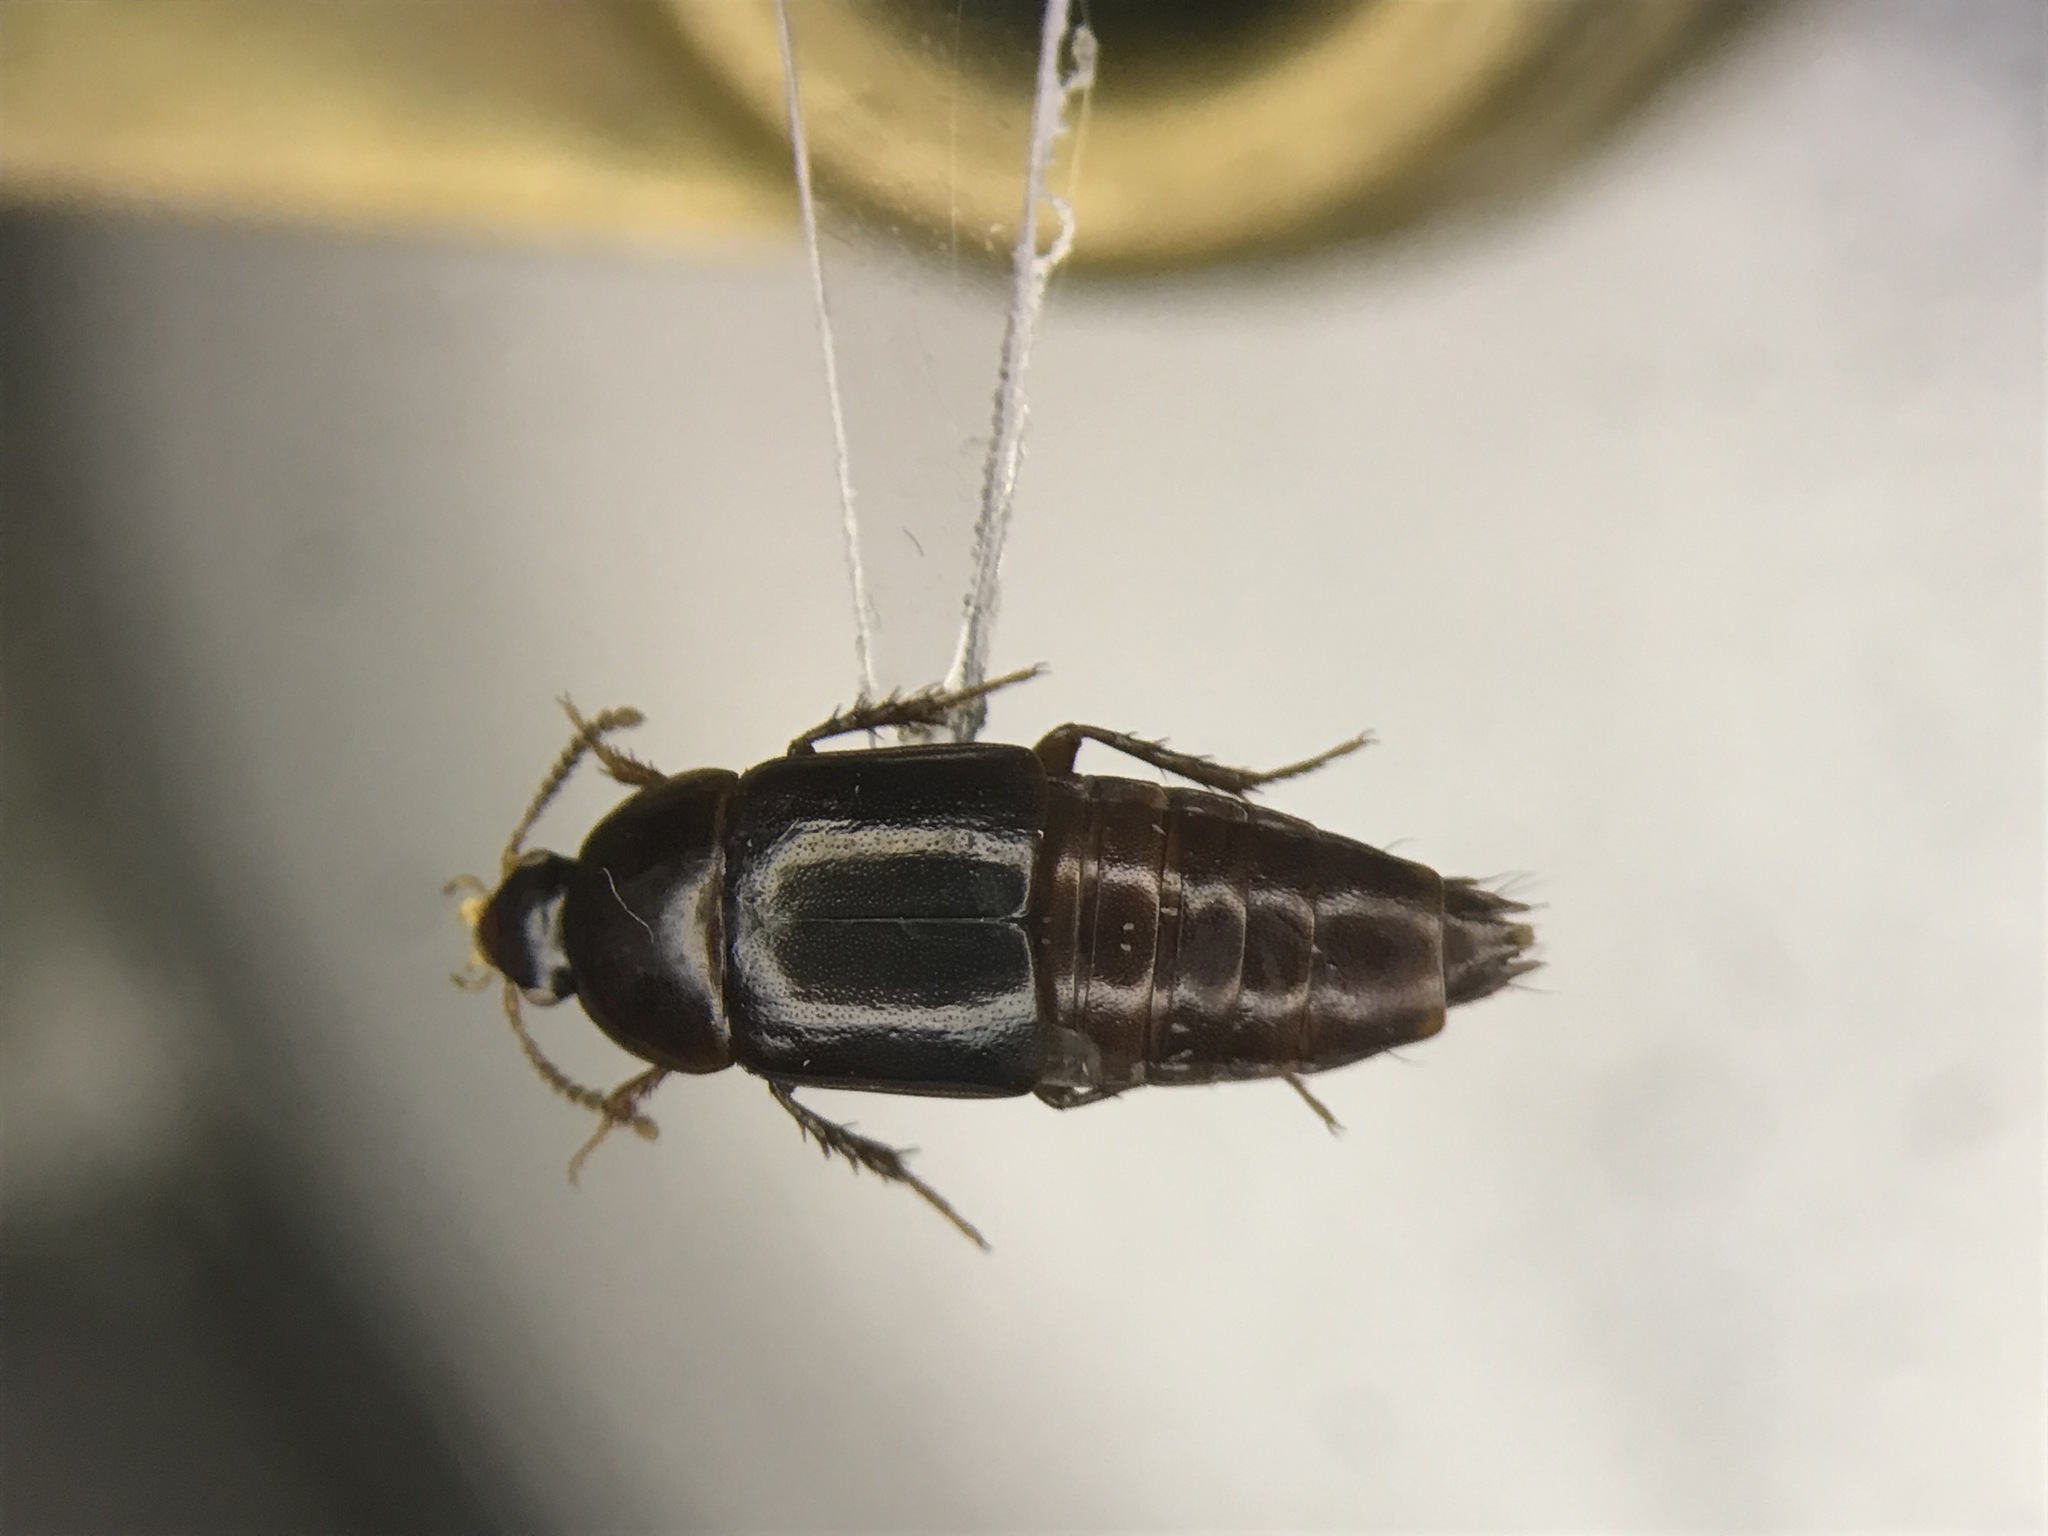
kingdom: Animalia
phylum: Arthropoda
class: Insecta
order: Coleoptera
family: Staphylinidae
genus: Tachinus
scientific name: Tachinus picipes
